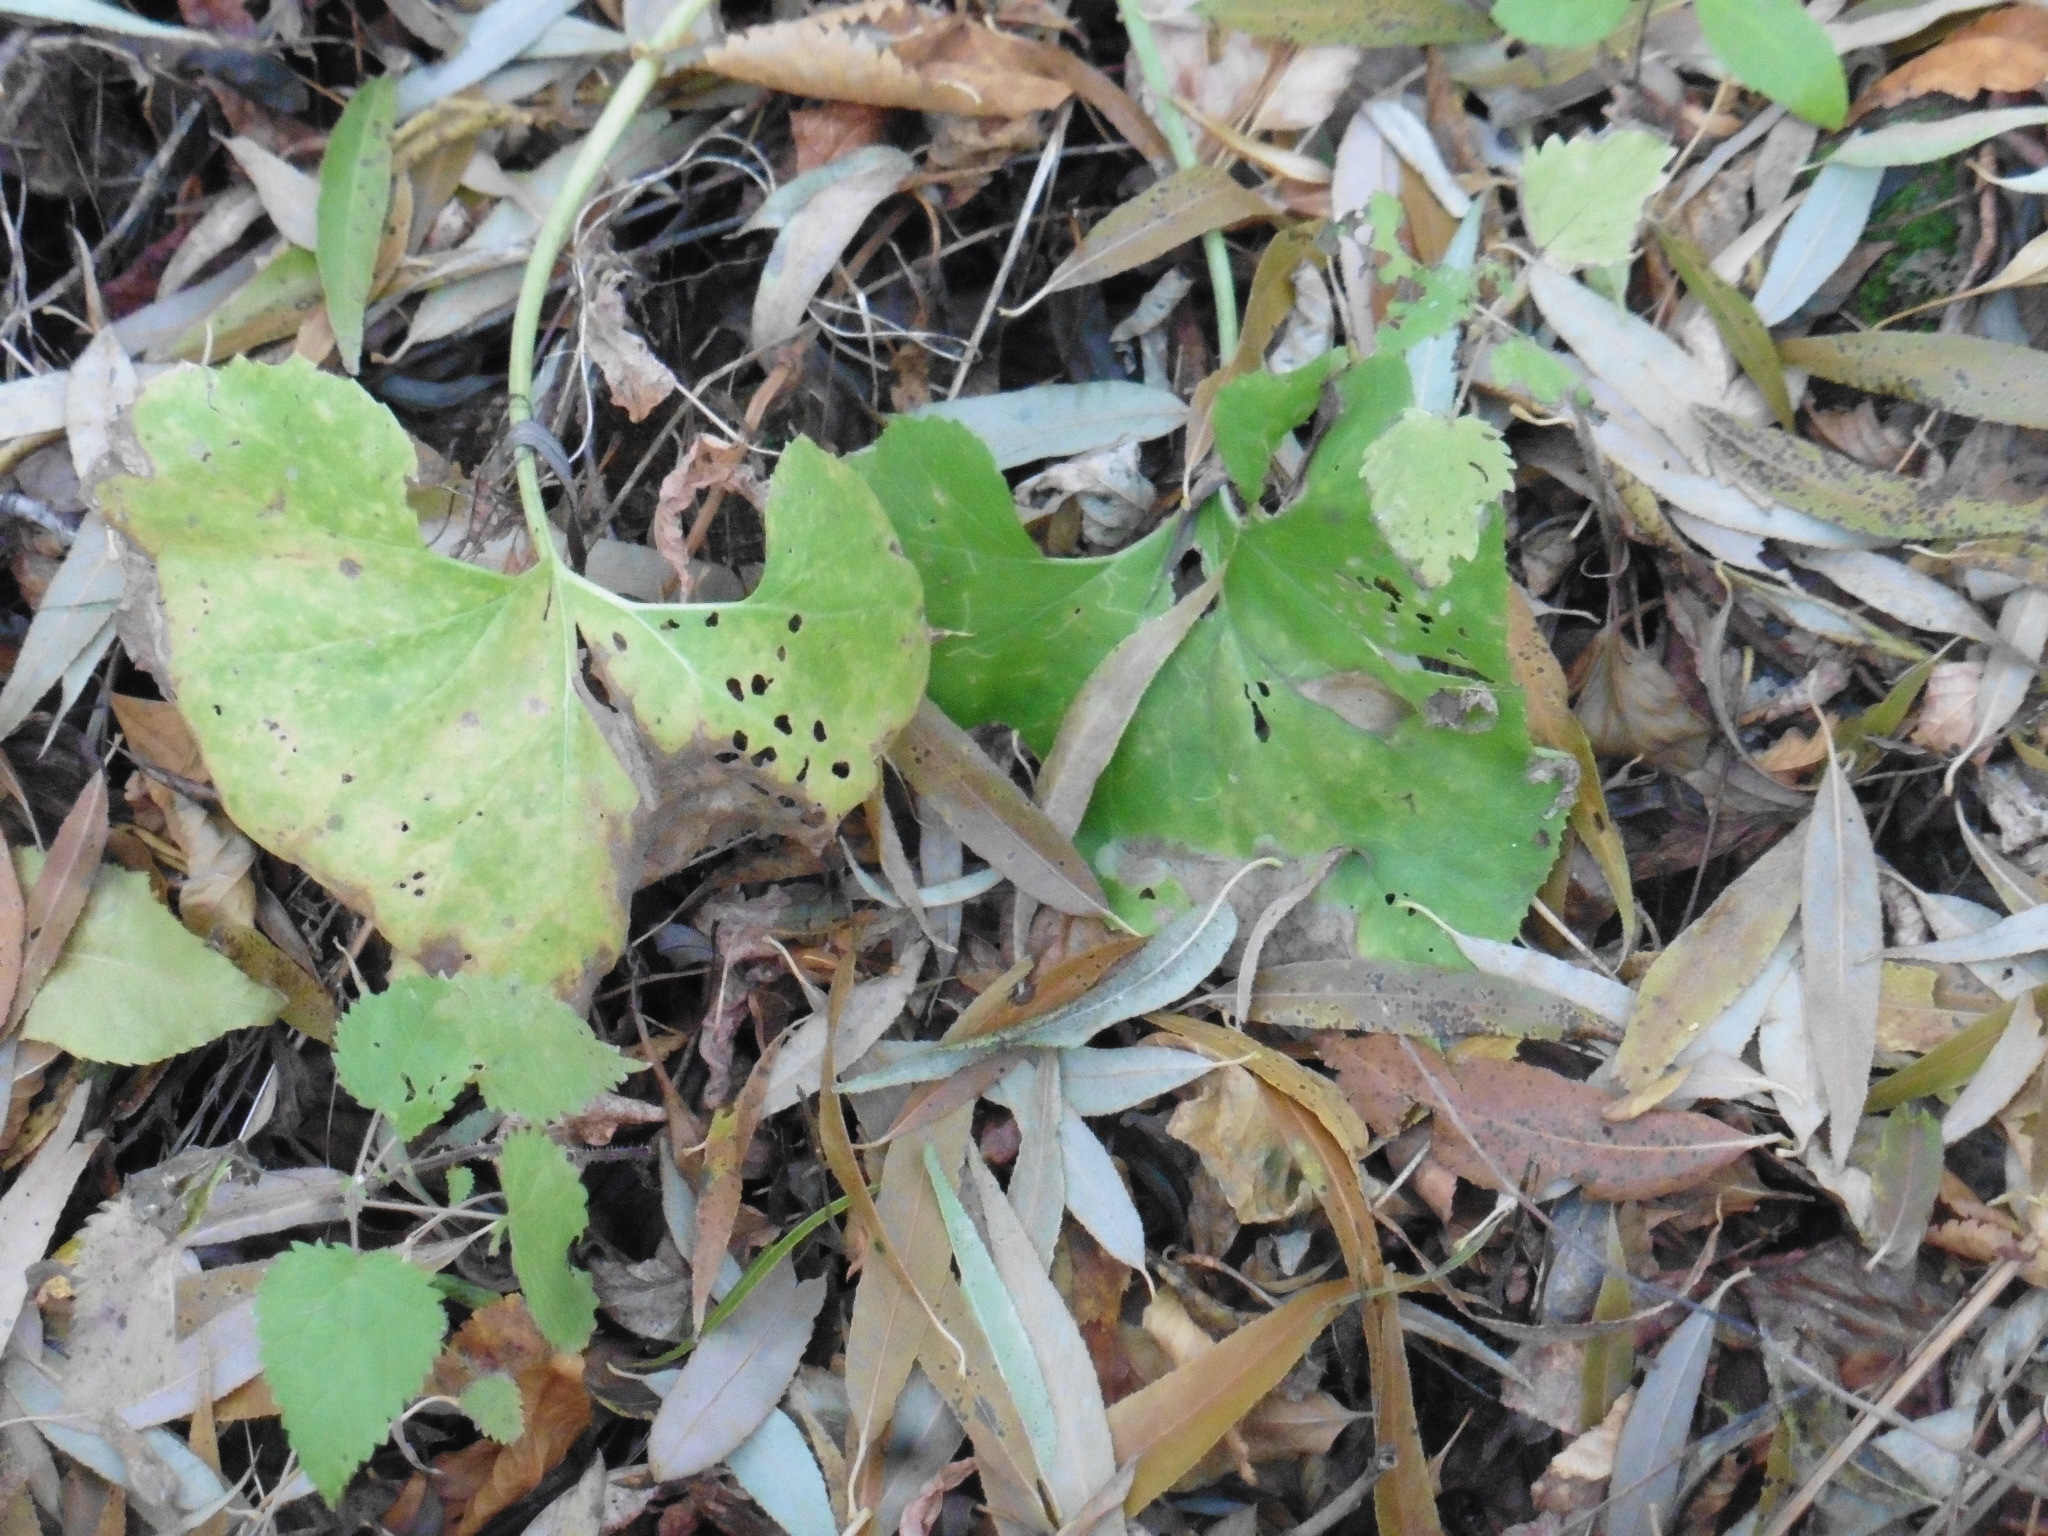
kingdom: Plantae
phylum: Tracheophyta
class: Magnoliopsida
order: Asterales
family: Asteraceae
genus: Petasites
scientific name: Petasites spurius
